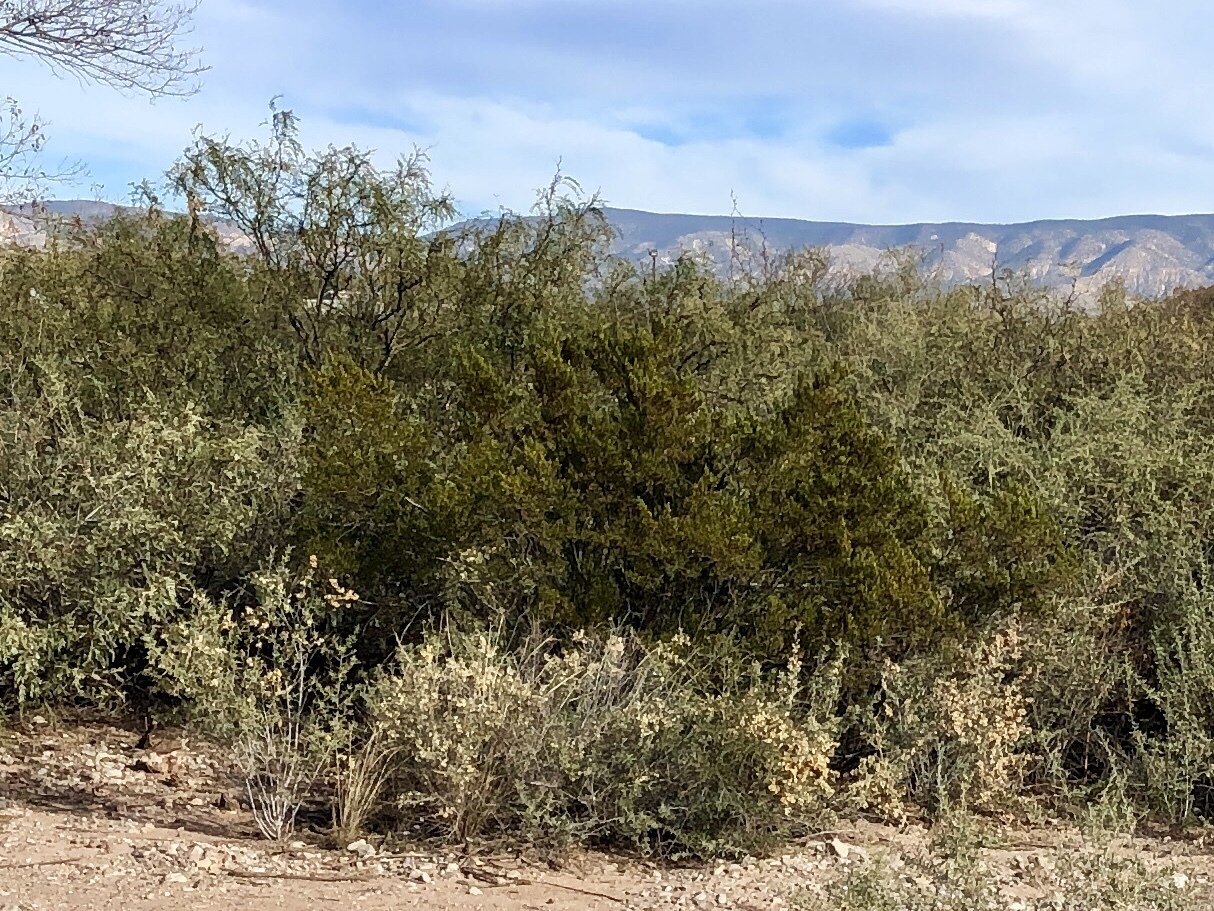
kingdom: Plantae
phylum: Tracheophyta
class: Magnoliopsida
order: Zygophyllales
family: Zygophyllaceae
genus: Larrea
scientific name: Larrea tridentata
